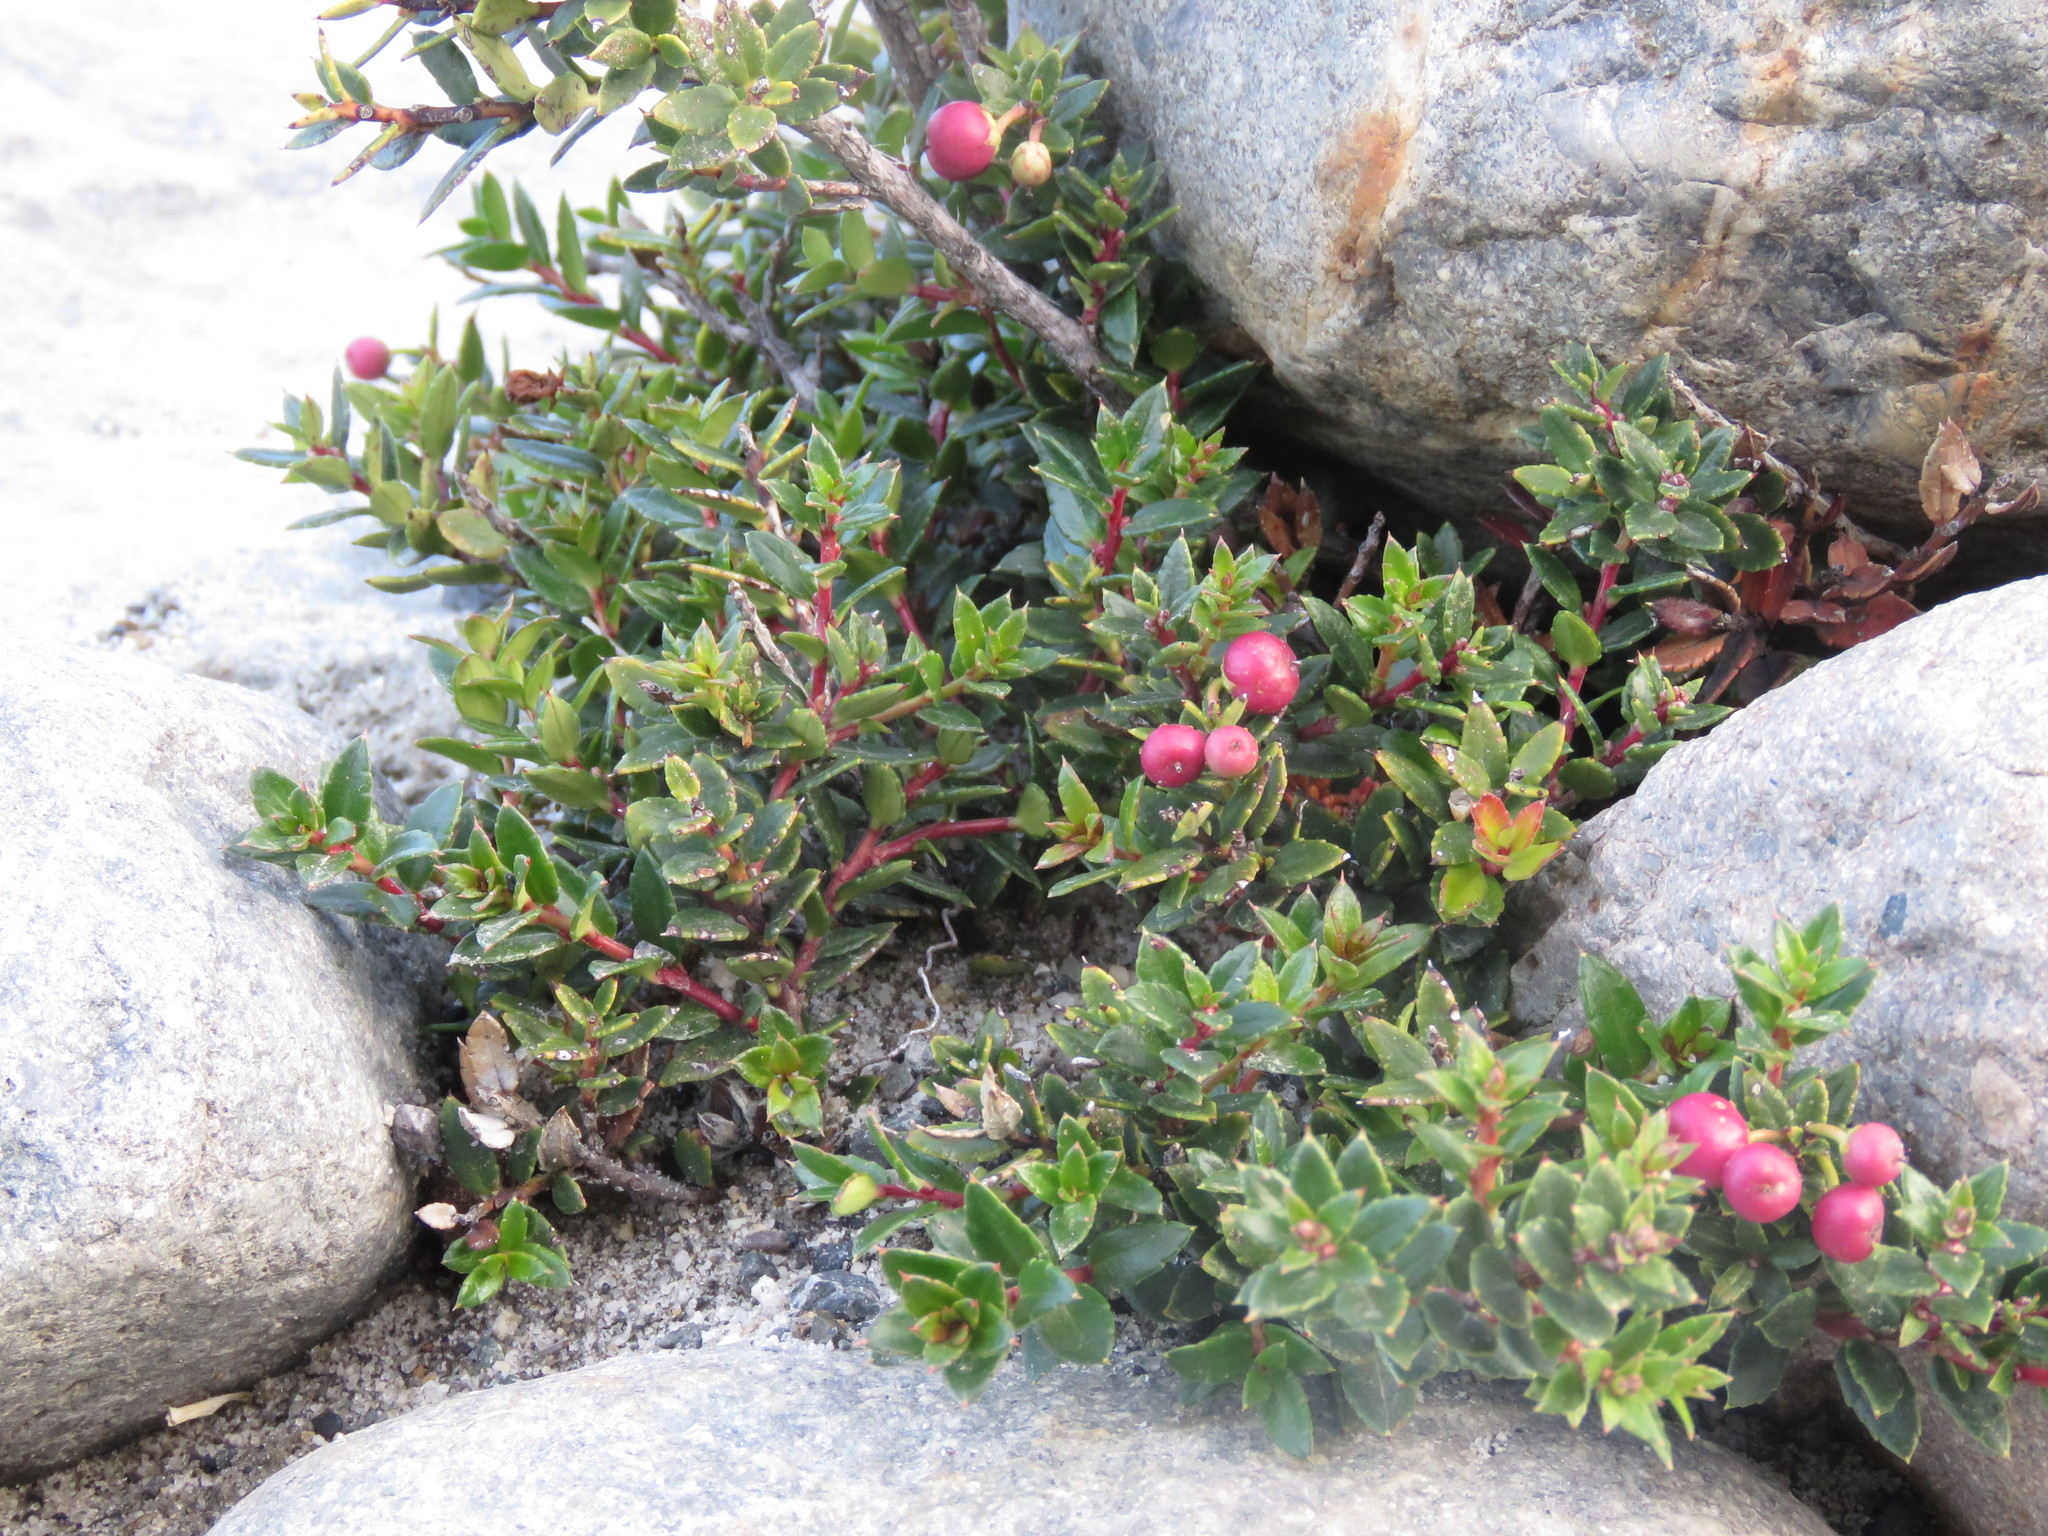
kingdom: Plantae
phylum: Tracheophyta
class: Magnoliopsida
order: Ericales
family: Ericaceae
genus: Gaultheria
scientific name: Gaultheria mucronata
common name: Prickly heath
